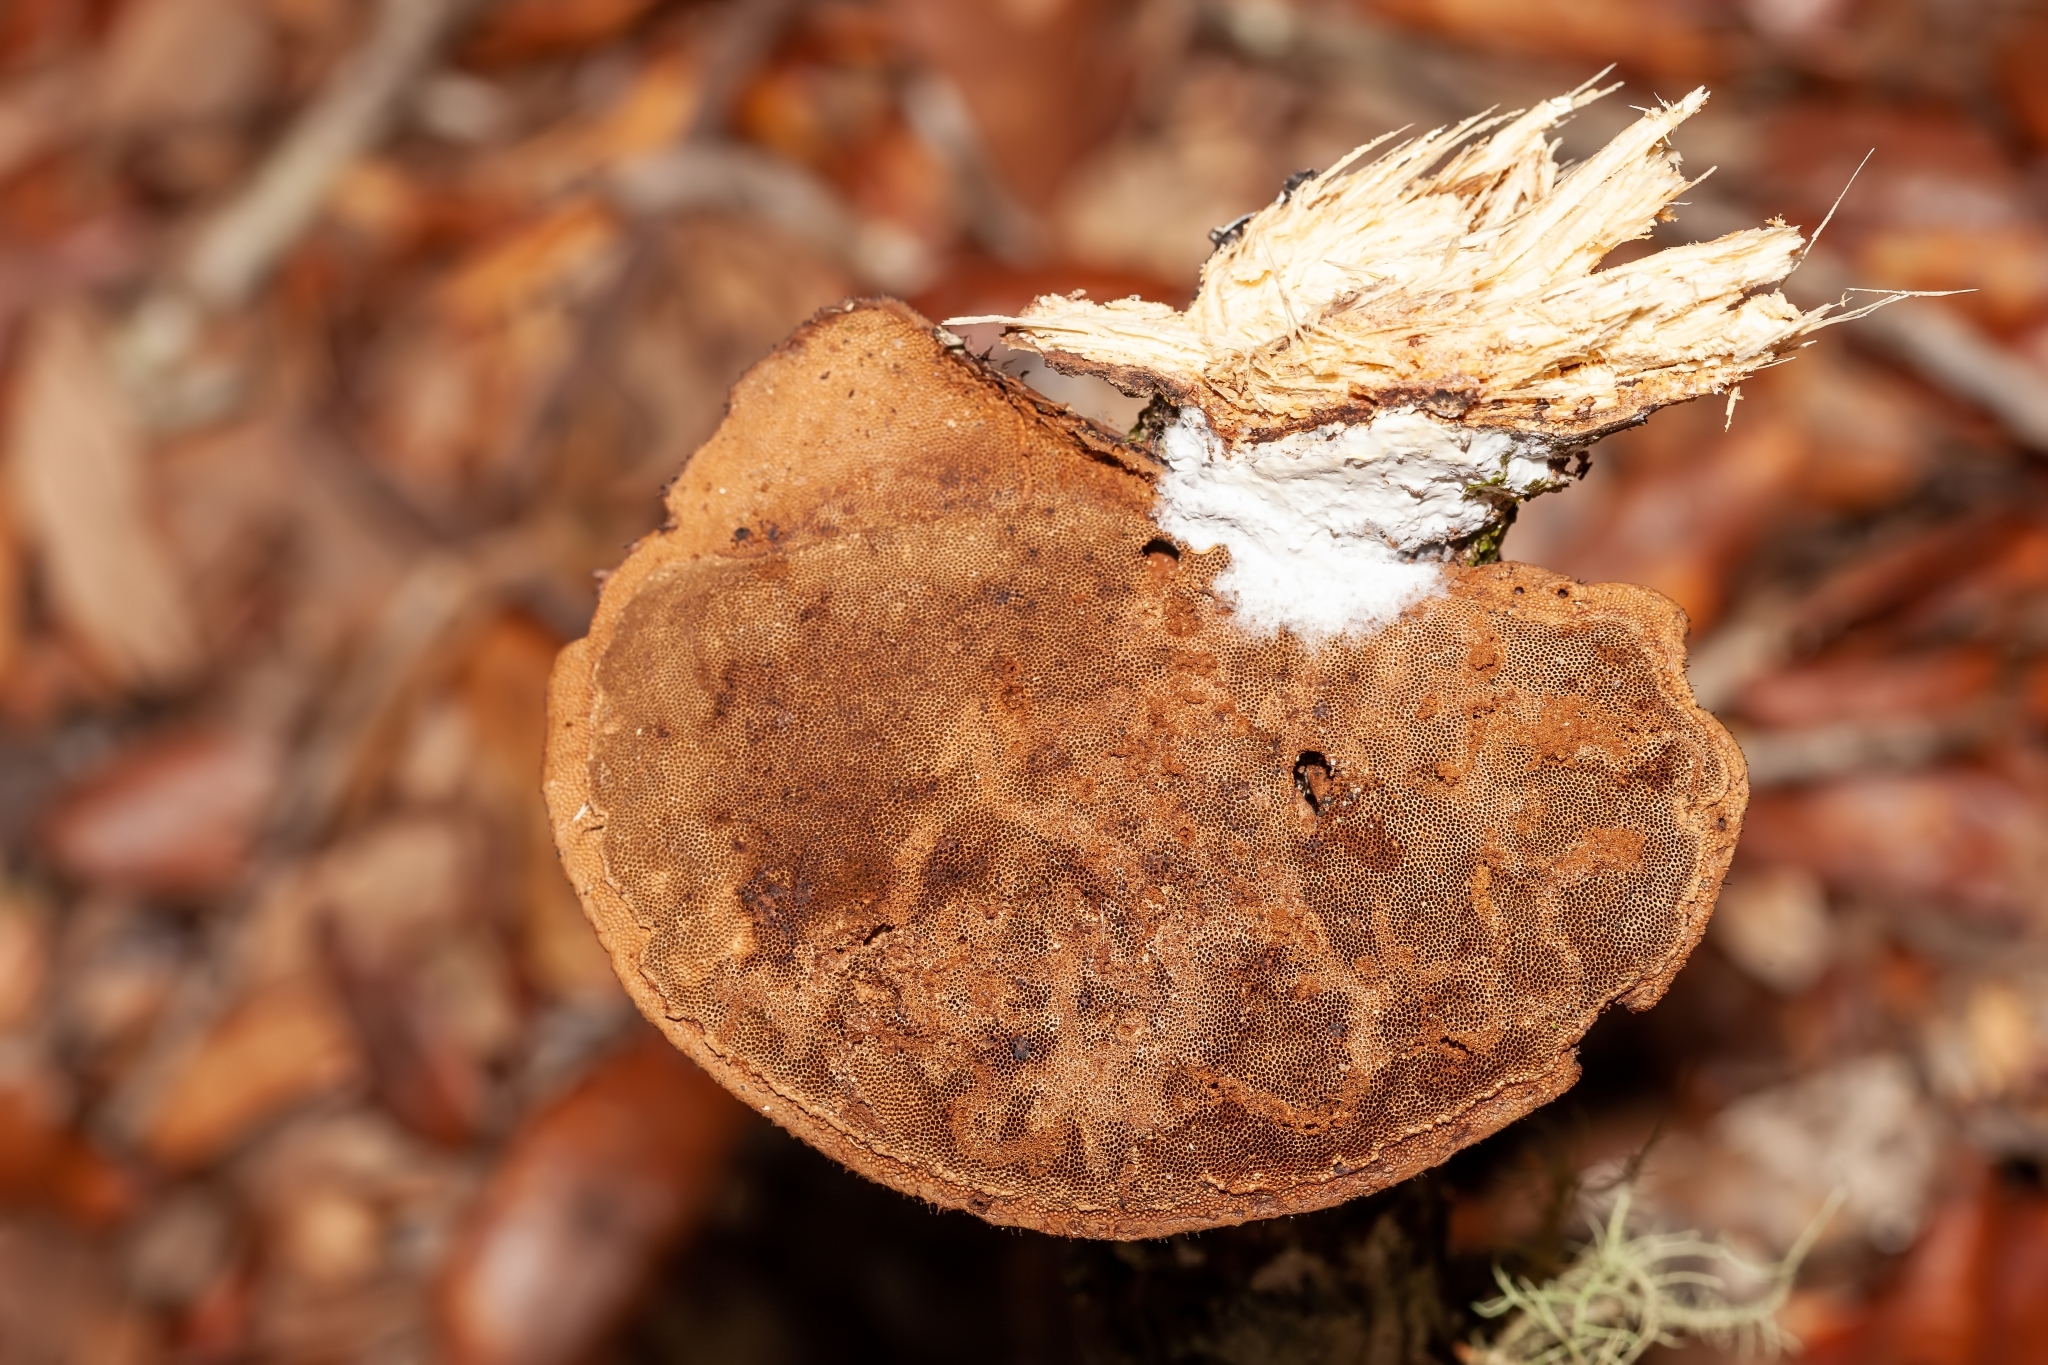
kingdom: Fungi
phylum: Basidiomycota
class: Agaricomycetes
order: Polyporales
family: Cerrenaceae
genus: Cerrena
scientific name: Cerrena hydnoides
